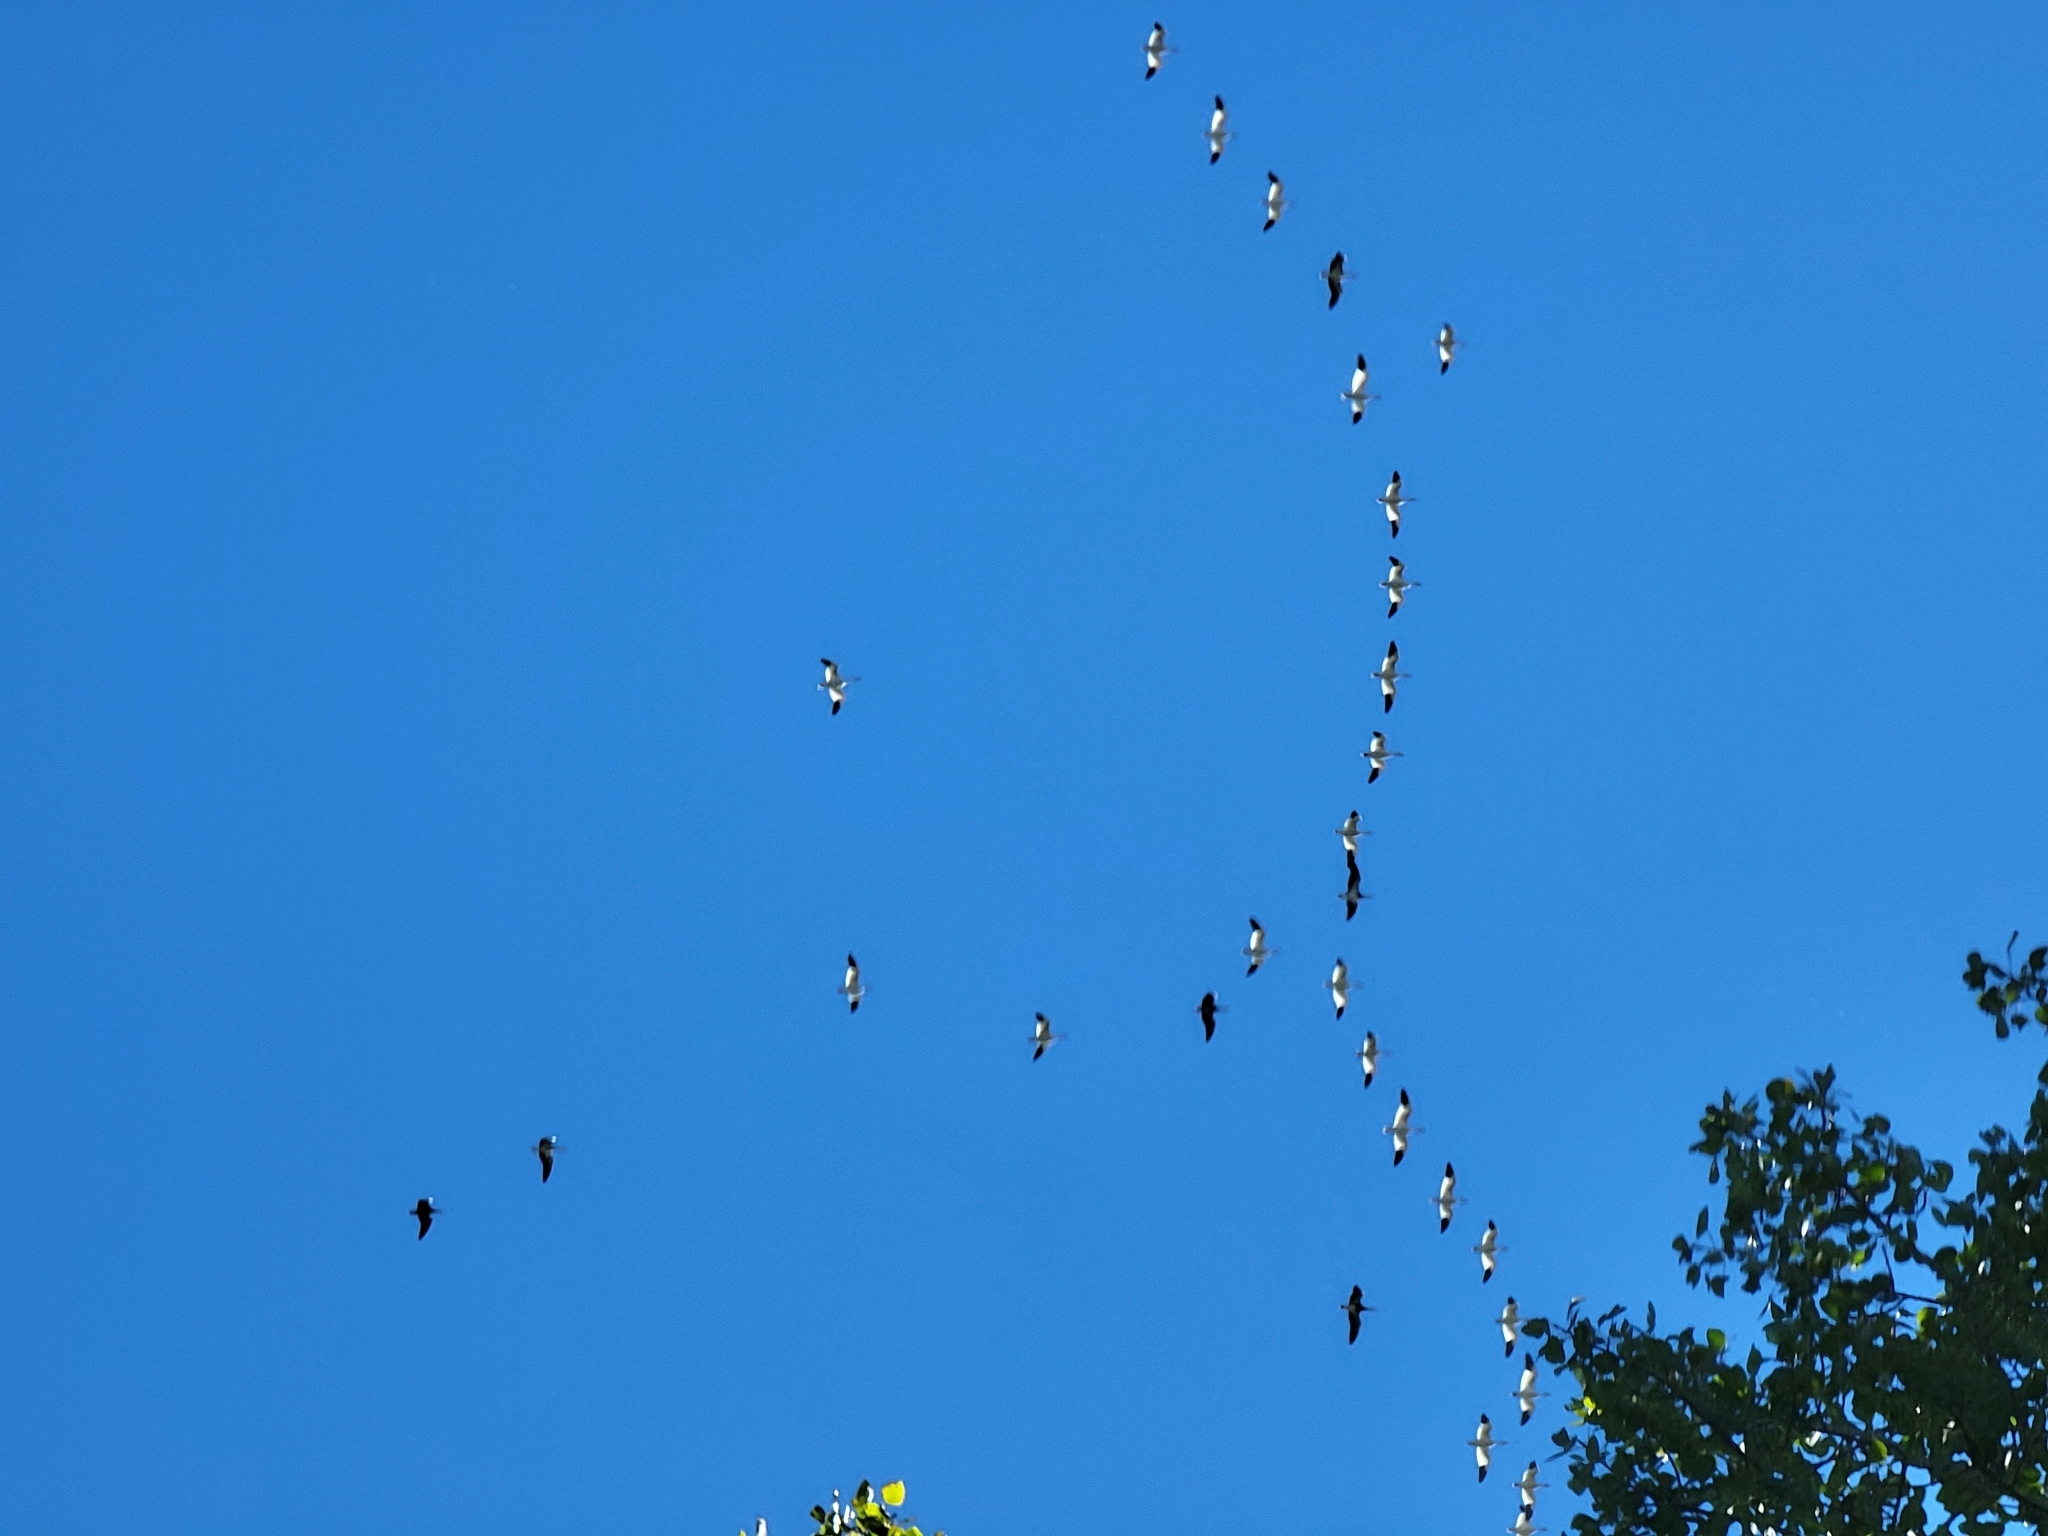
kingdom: Animalia
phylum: Chordata
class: Aves
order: Anseriformes
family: Anatidae
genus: Anser
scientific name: Anser caerulescens
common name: Snow goose
